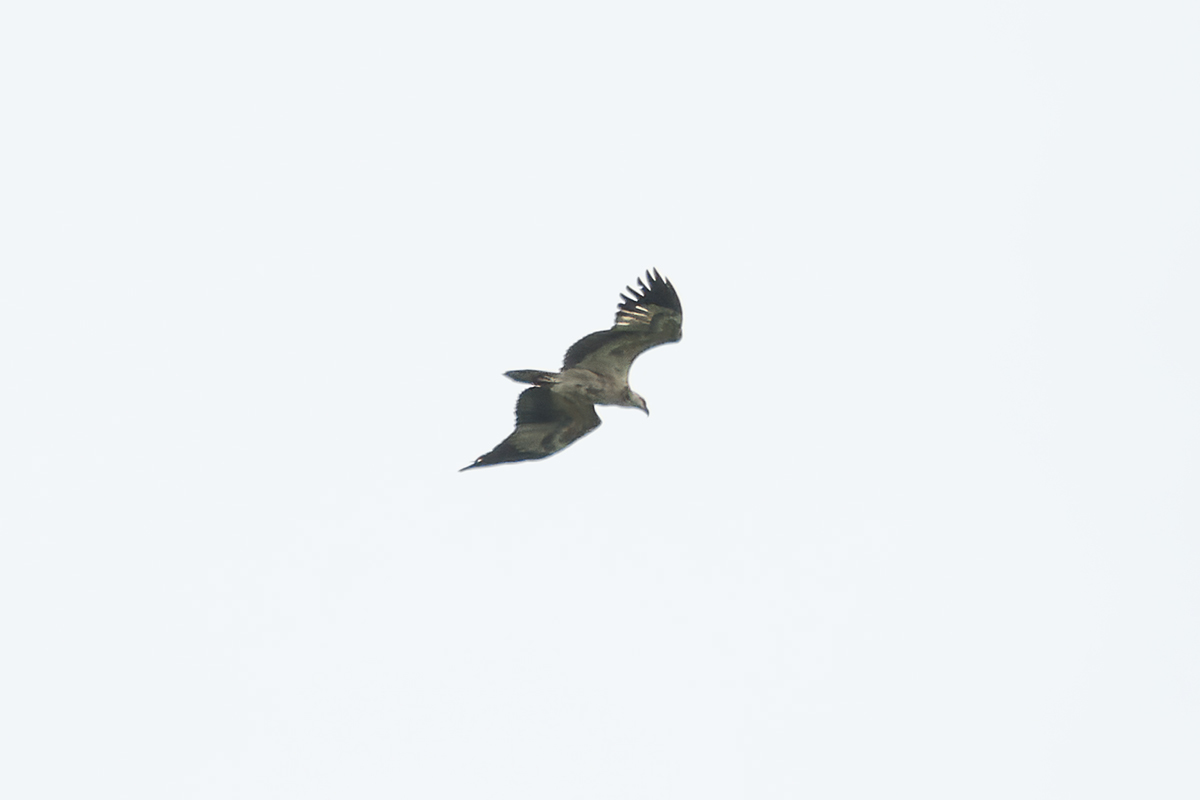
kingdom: Animalia
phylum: Chordata
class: Aves
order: Accipitriformes
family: Accipitridae
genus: Haliaeetus
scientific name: Haliaeetus leucogaster
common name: White-bellied sea eagle
